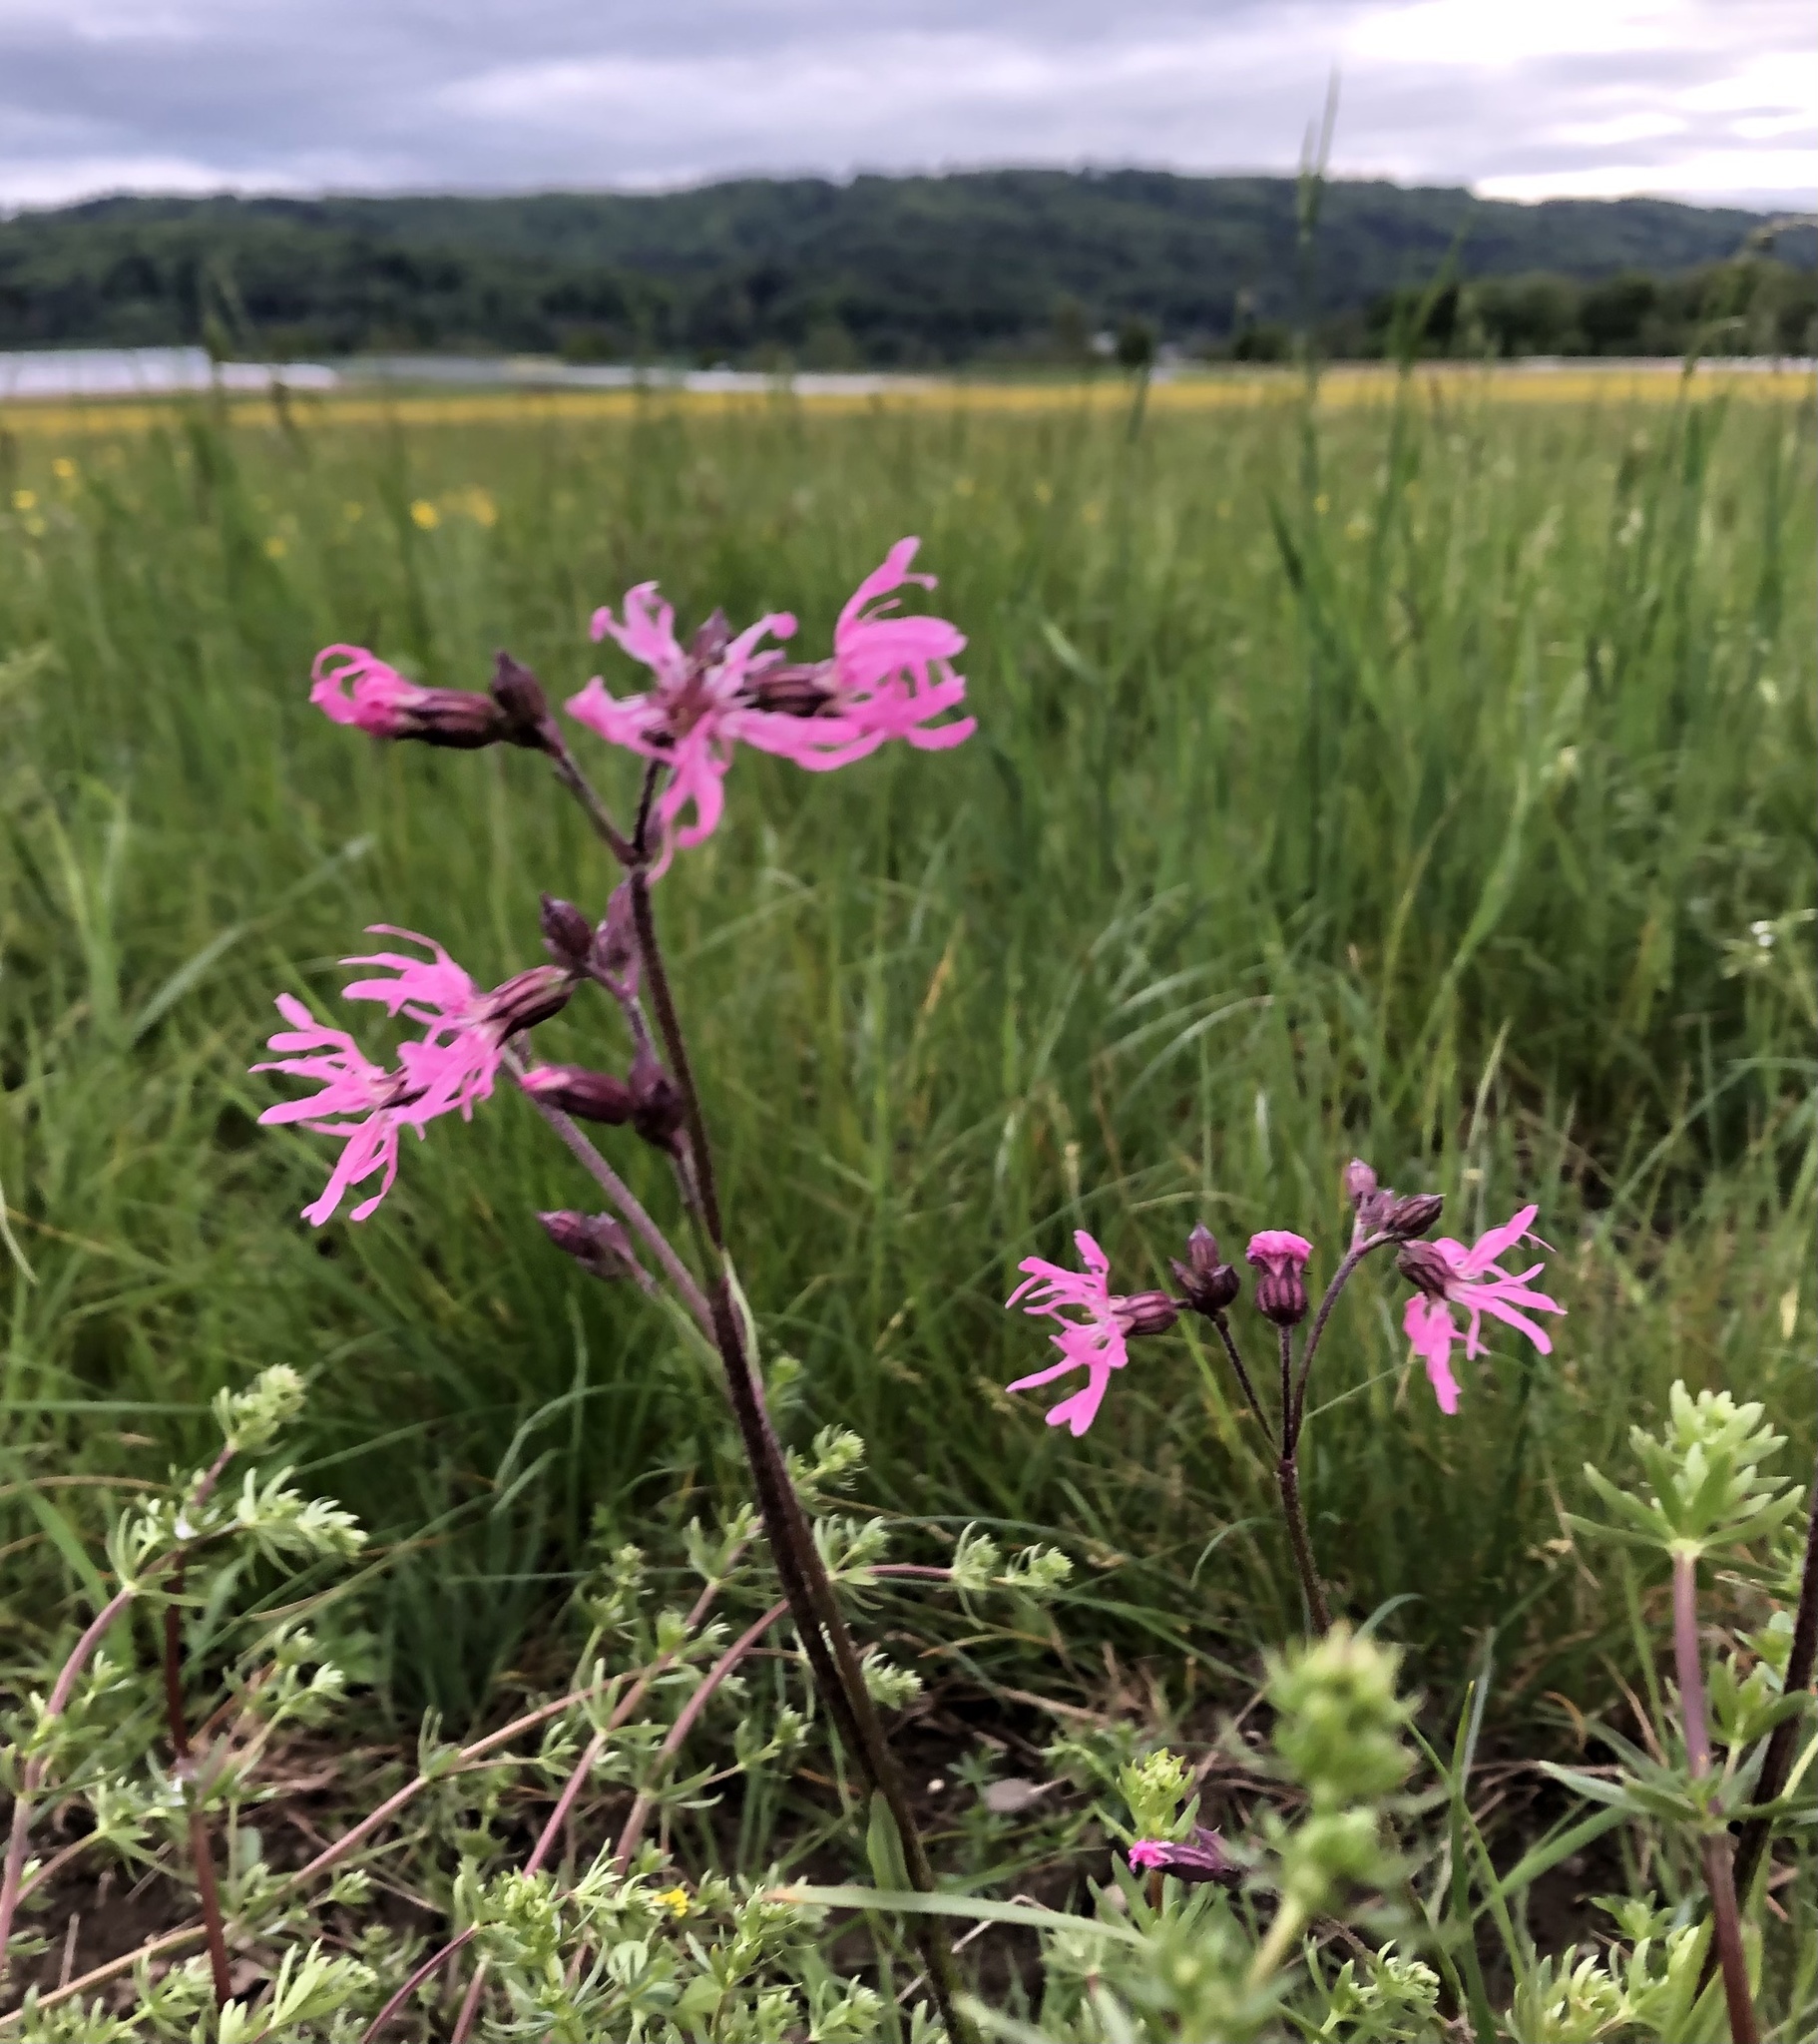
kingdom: Plantae
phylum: Tracheophyta
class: Magnoliopsida
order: Caryophyllales
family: Caryophyllaceae
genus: Silene
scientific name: Silene flos-cuculi
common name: Ragged-robin
